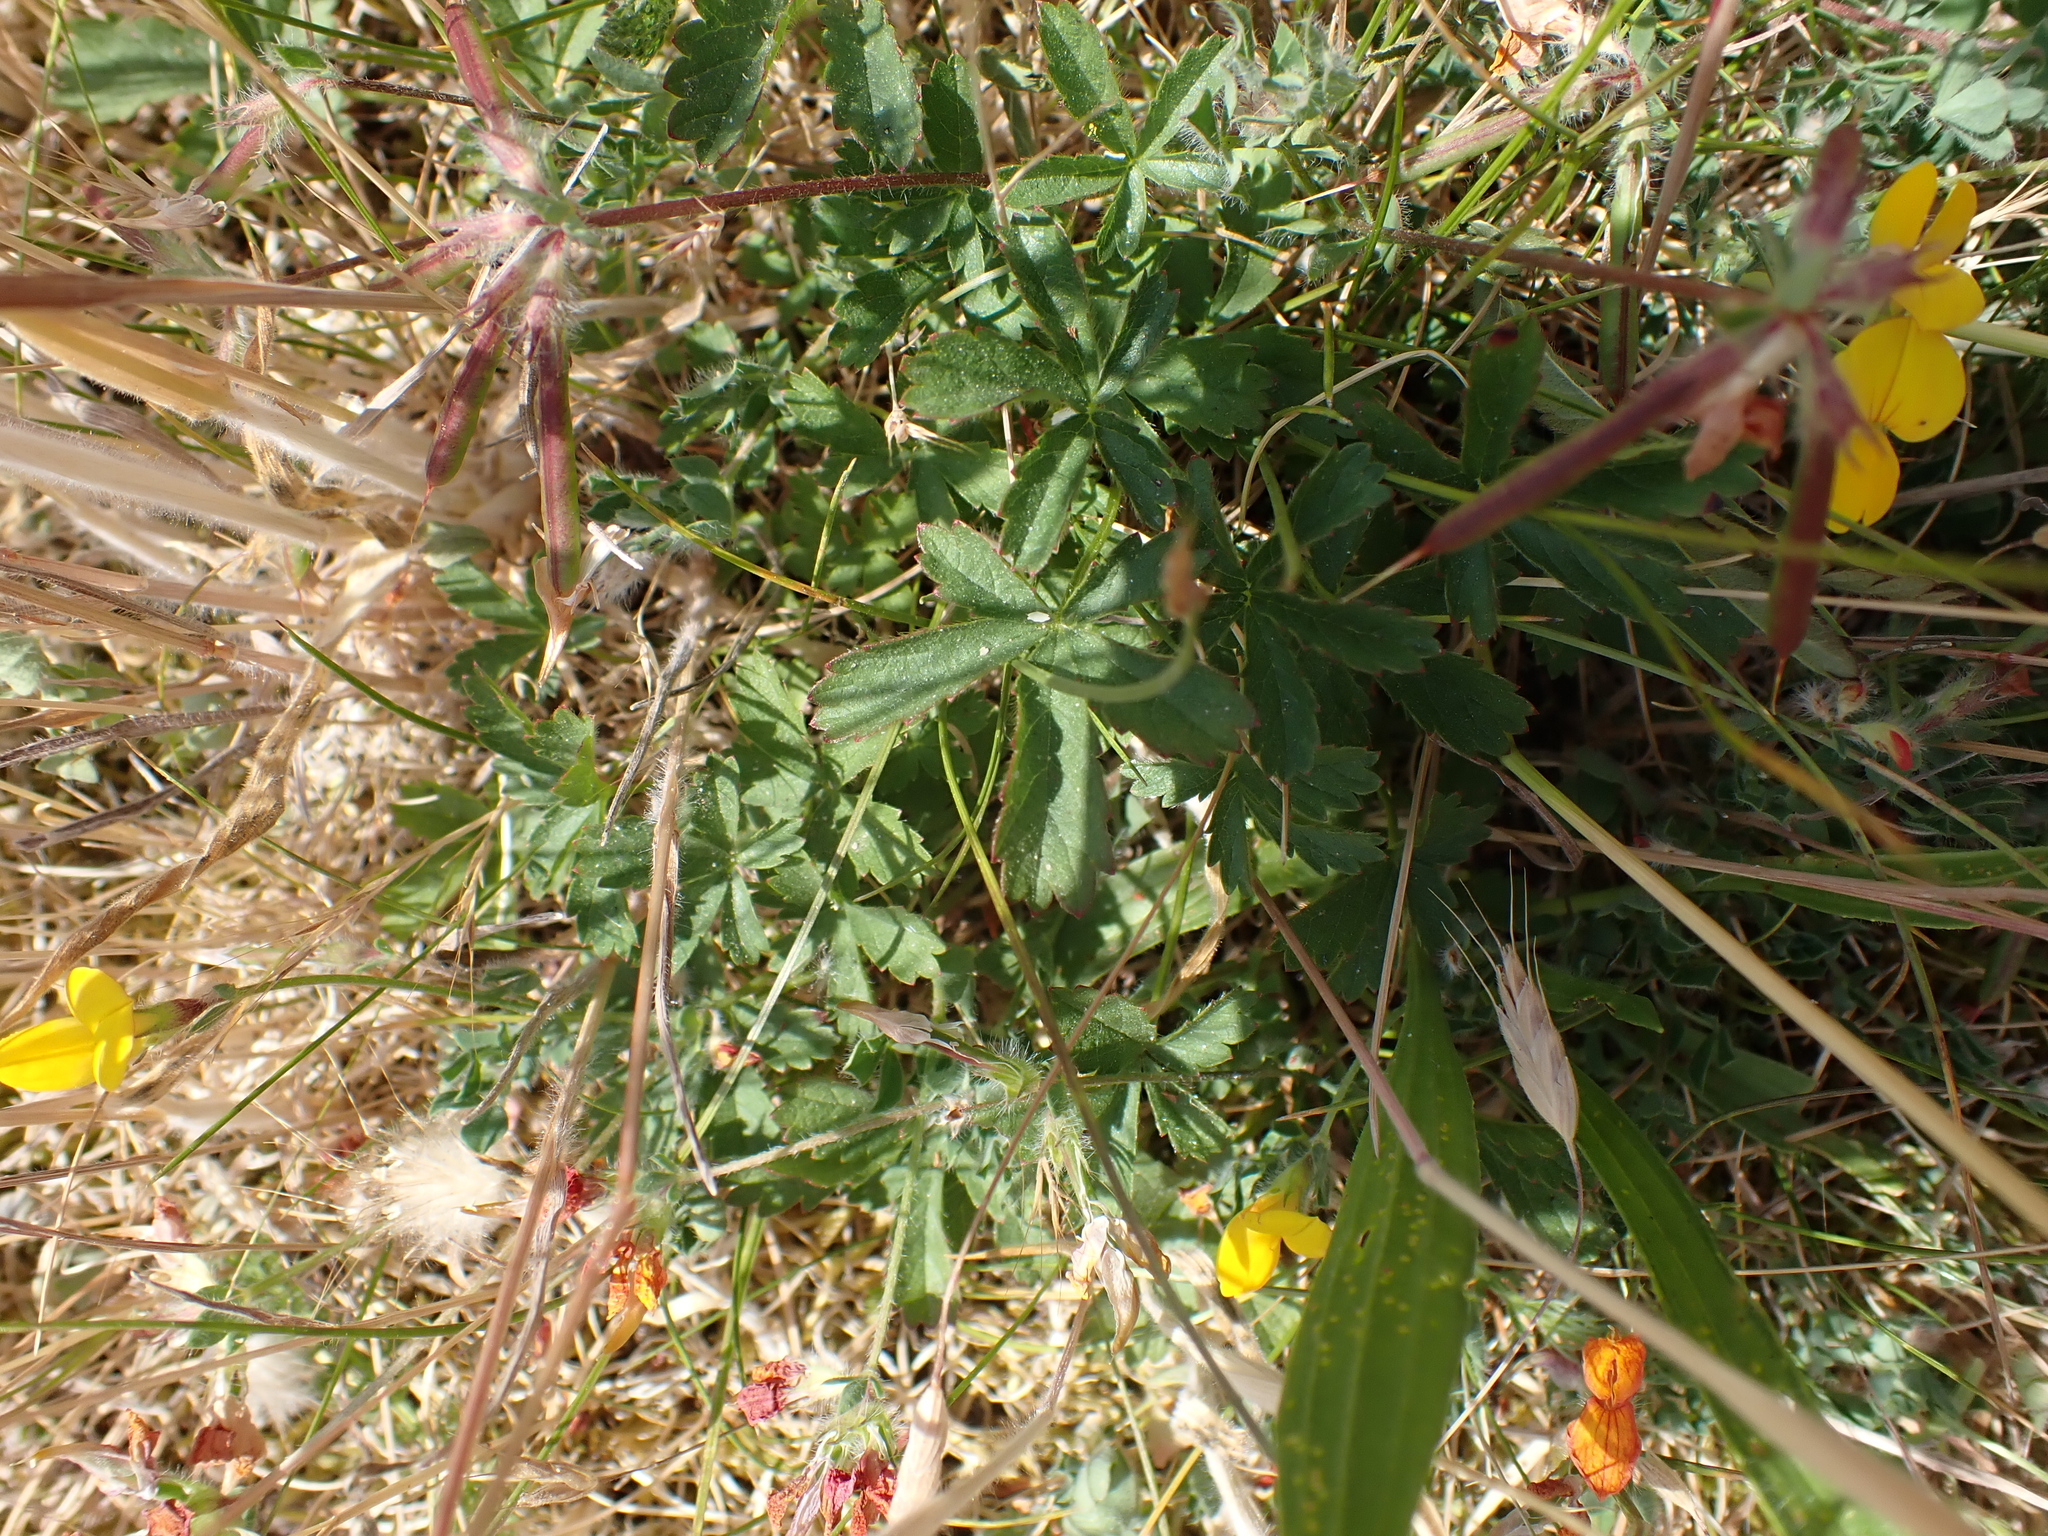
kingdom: Plantae
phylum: Tracheophyta
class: Magnoliopsida
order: Rosales
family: Rosaceae
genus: Potentilla
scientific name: Potentilla reptans
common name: Creeping cinquefoil
